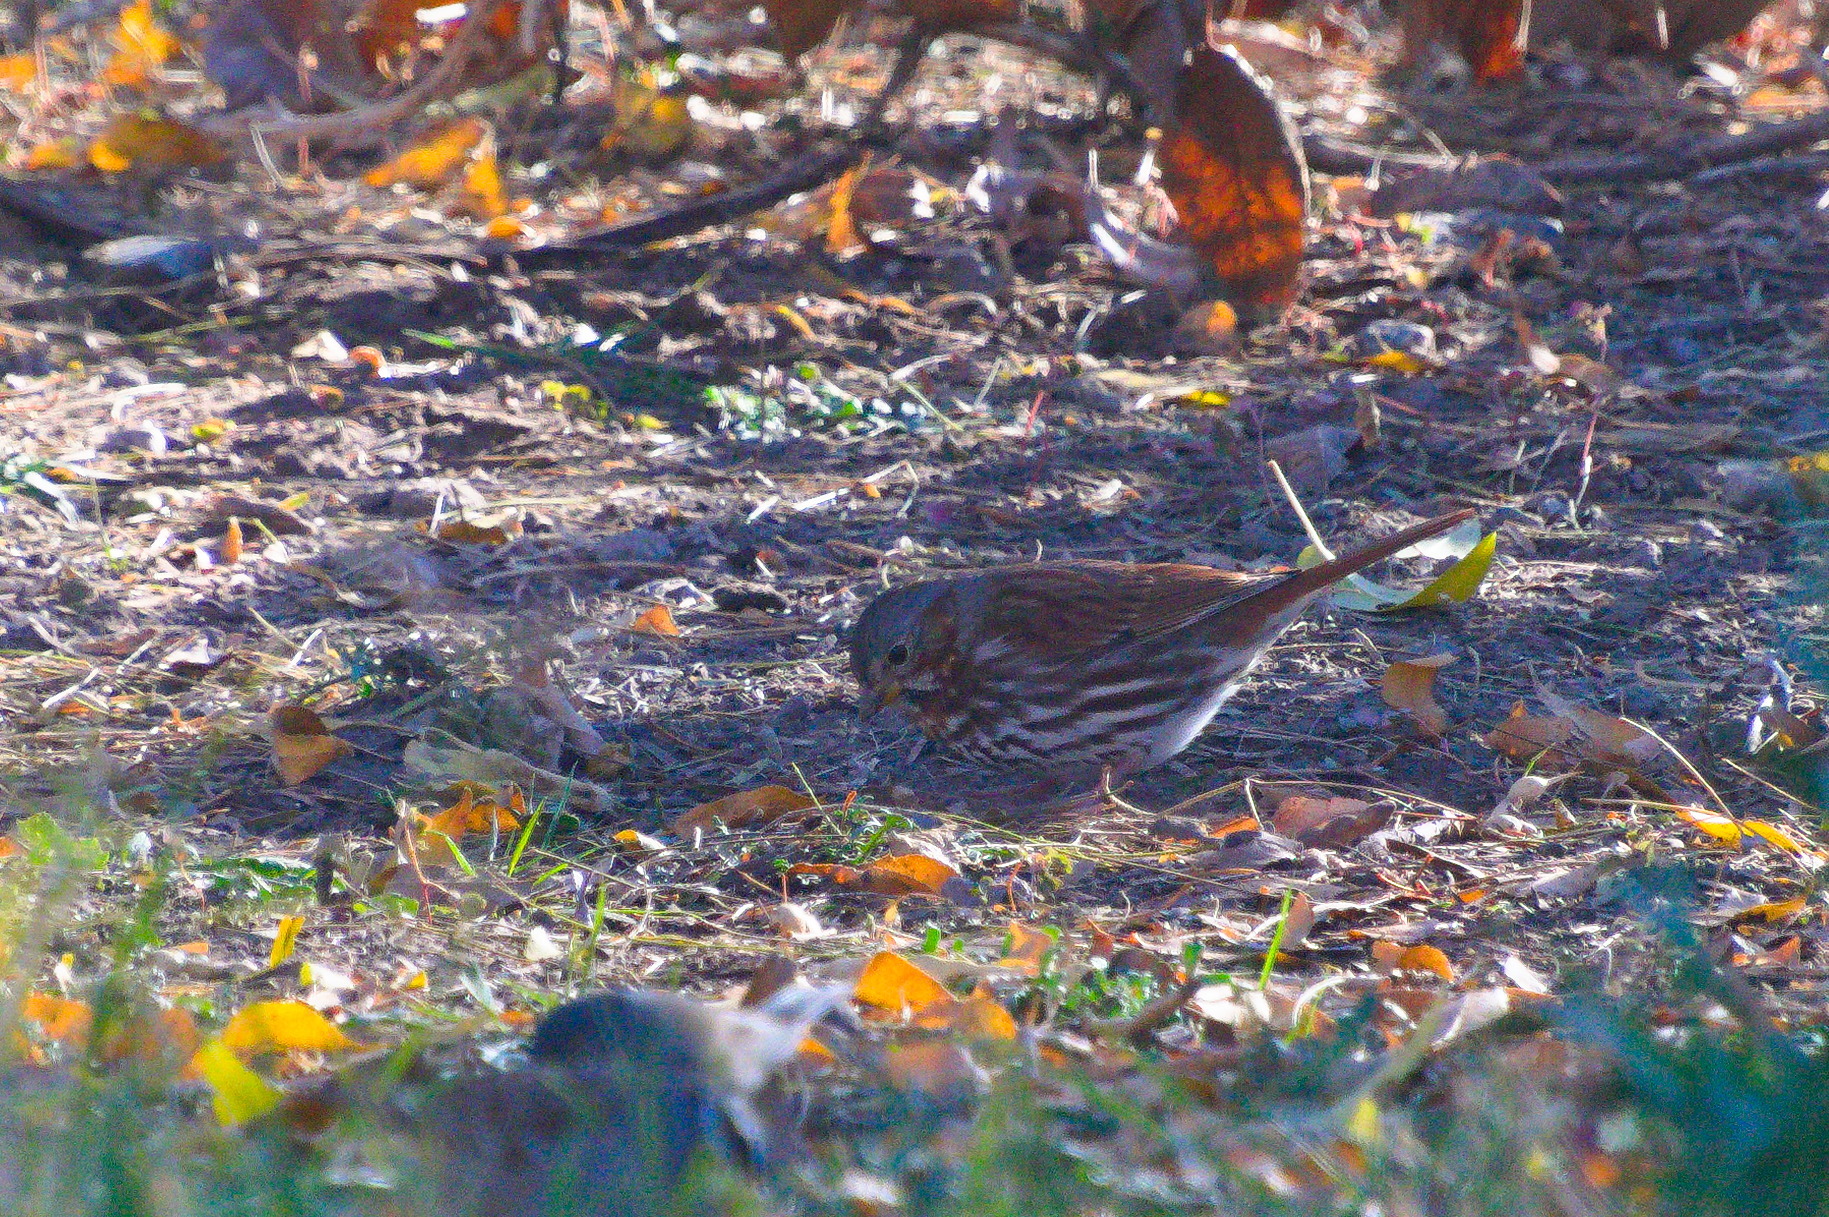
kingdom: Animalia
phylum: Chordata
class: Aves
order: Passeriformes
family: Passerellidae
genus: Passerella
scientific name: Passerella iliaca
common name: Fox sparrow
